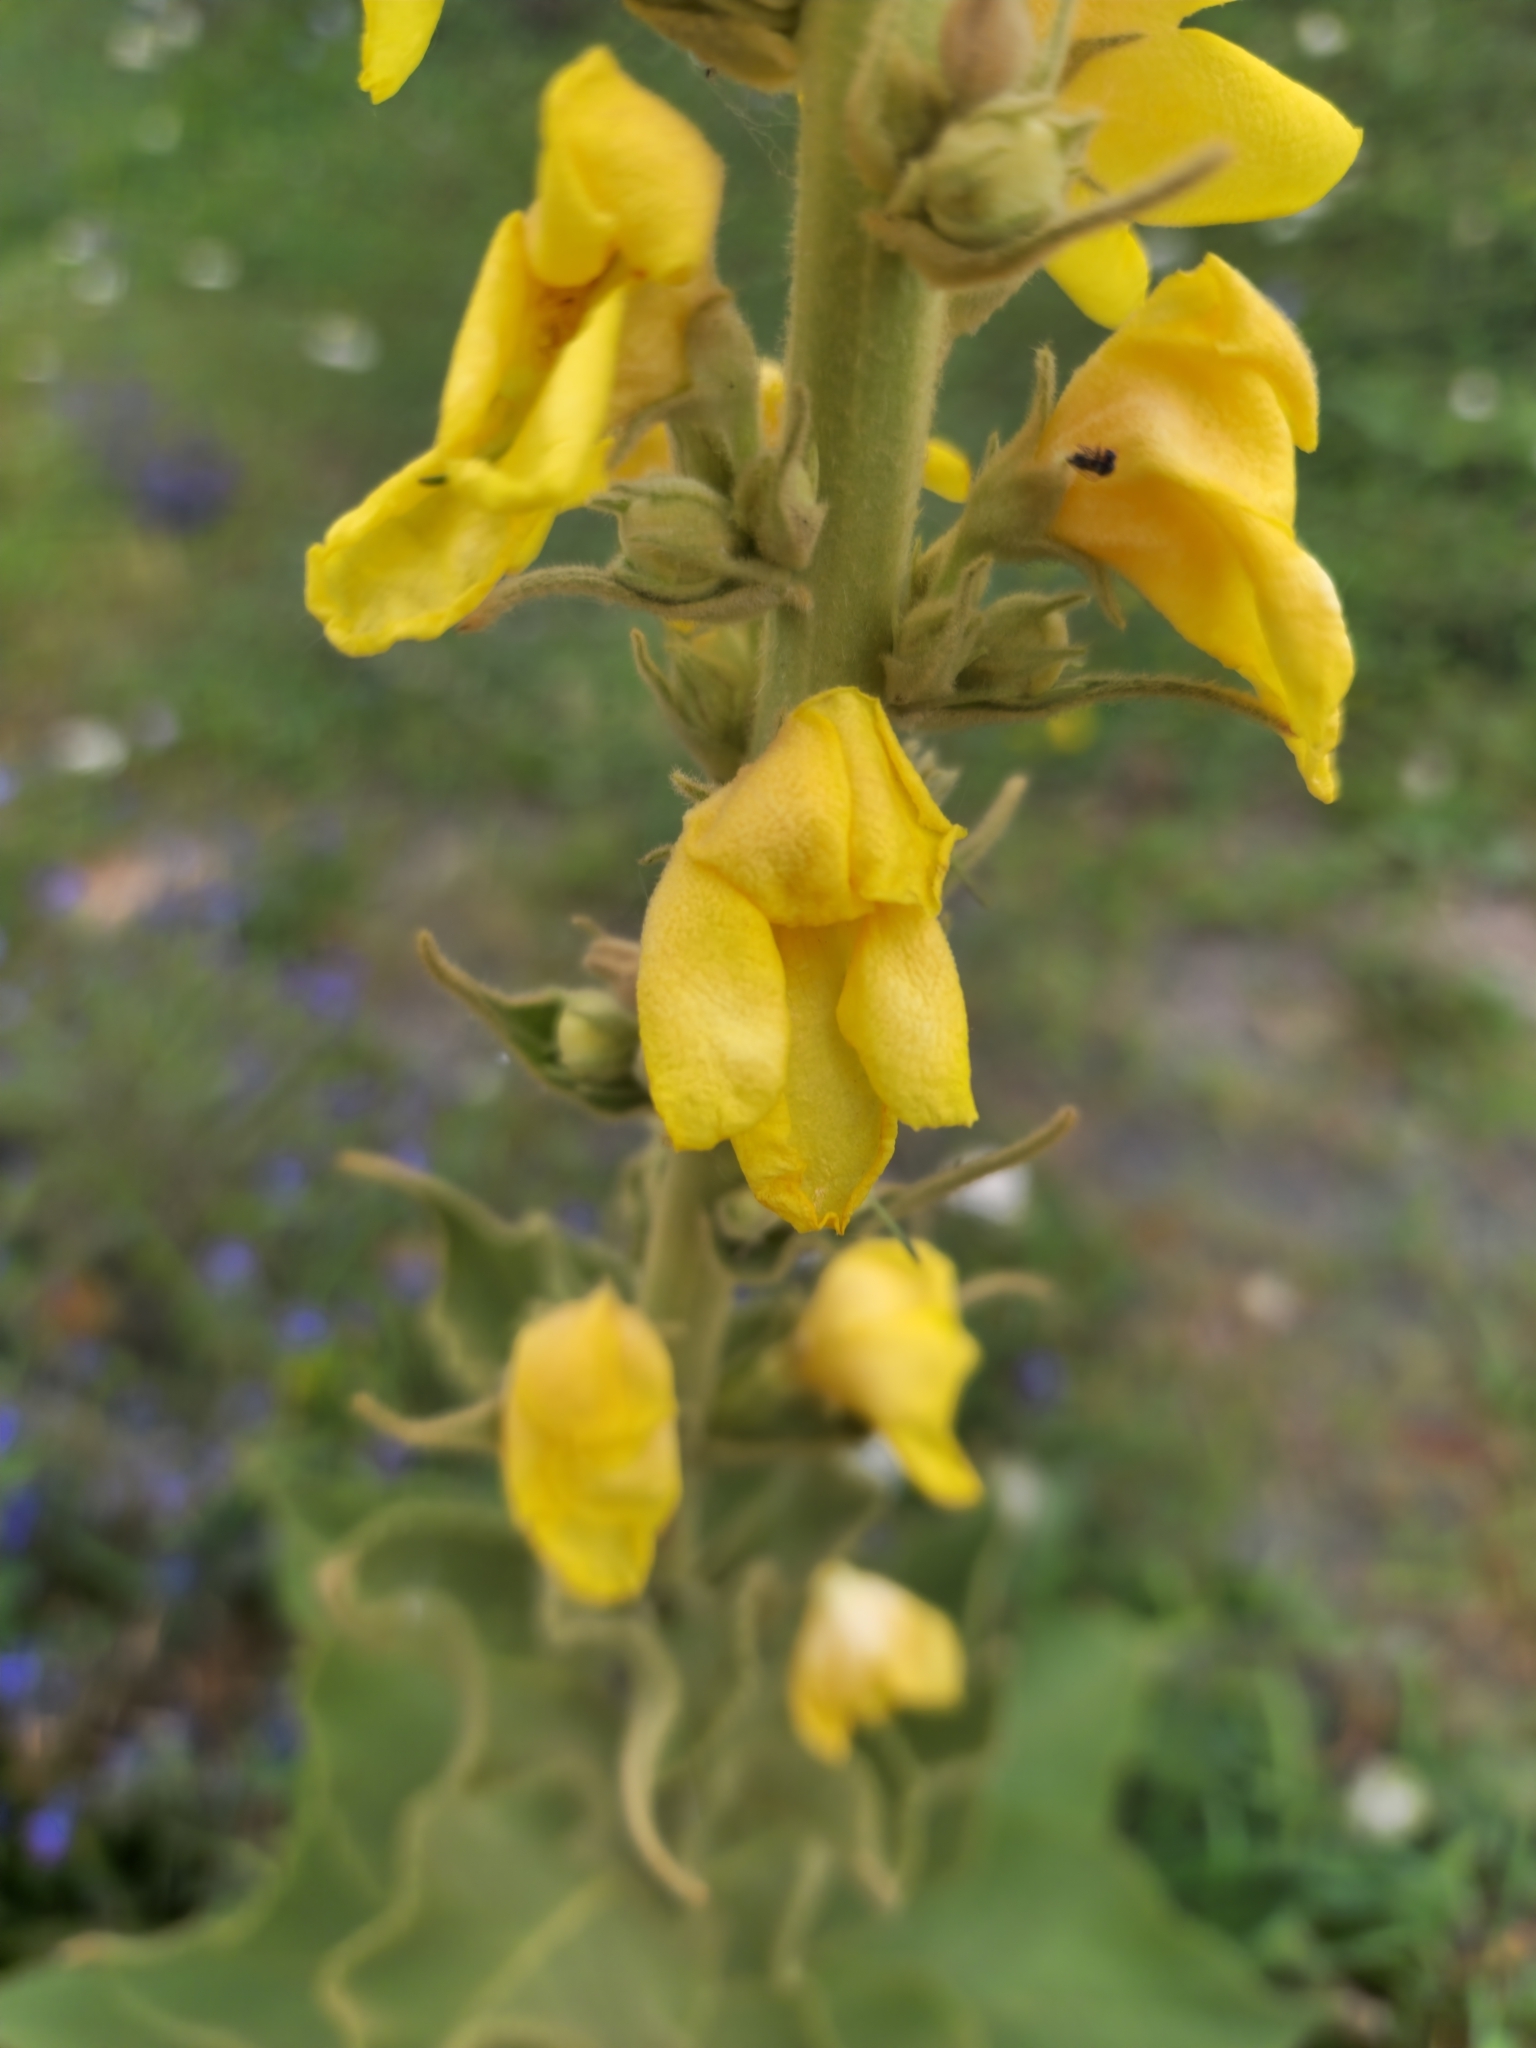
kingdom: Plantae
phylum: Tracheophyta
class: Magnoliopsida
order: Lamiales
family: Scrophulariaceae
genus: Verbascum
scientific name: Verbascum phlomoides
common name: Orange mullein
